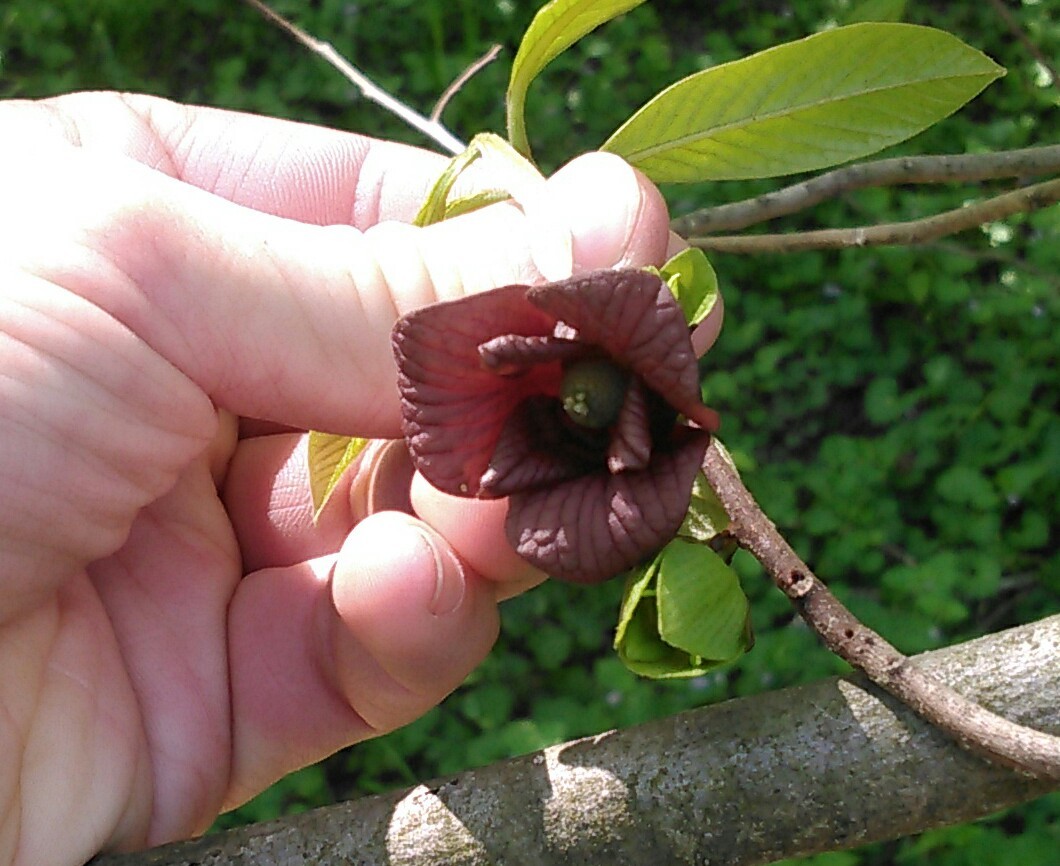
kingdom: Plantae
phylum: Tracheophyta
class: Magnoliopsida
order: Magnoliales
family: Annonaceae
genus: Asimina
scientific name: Asimina triloba
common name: Dog-banana
